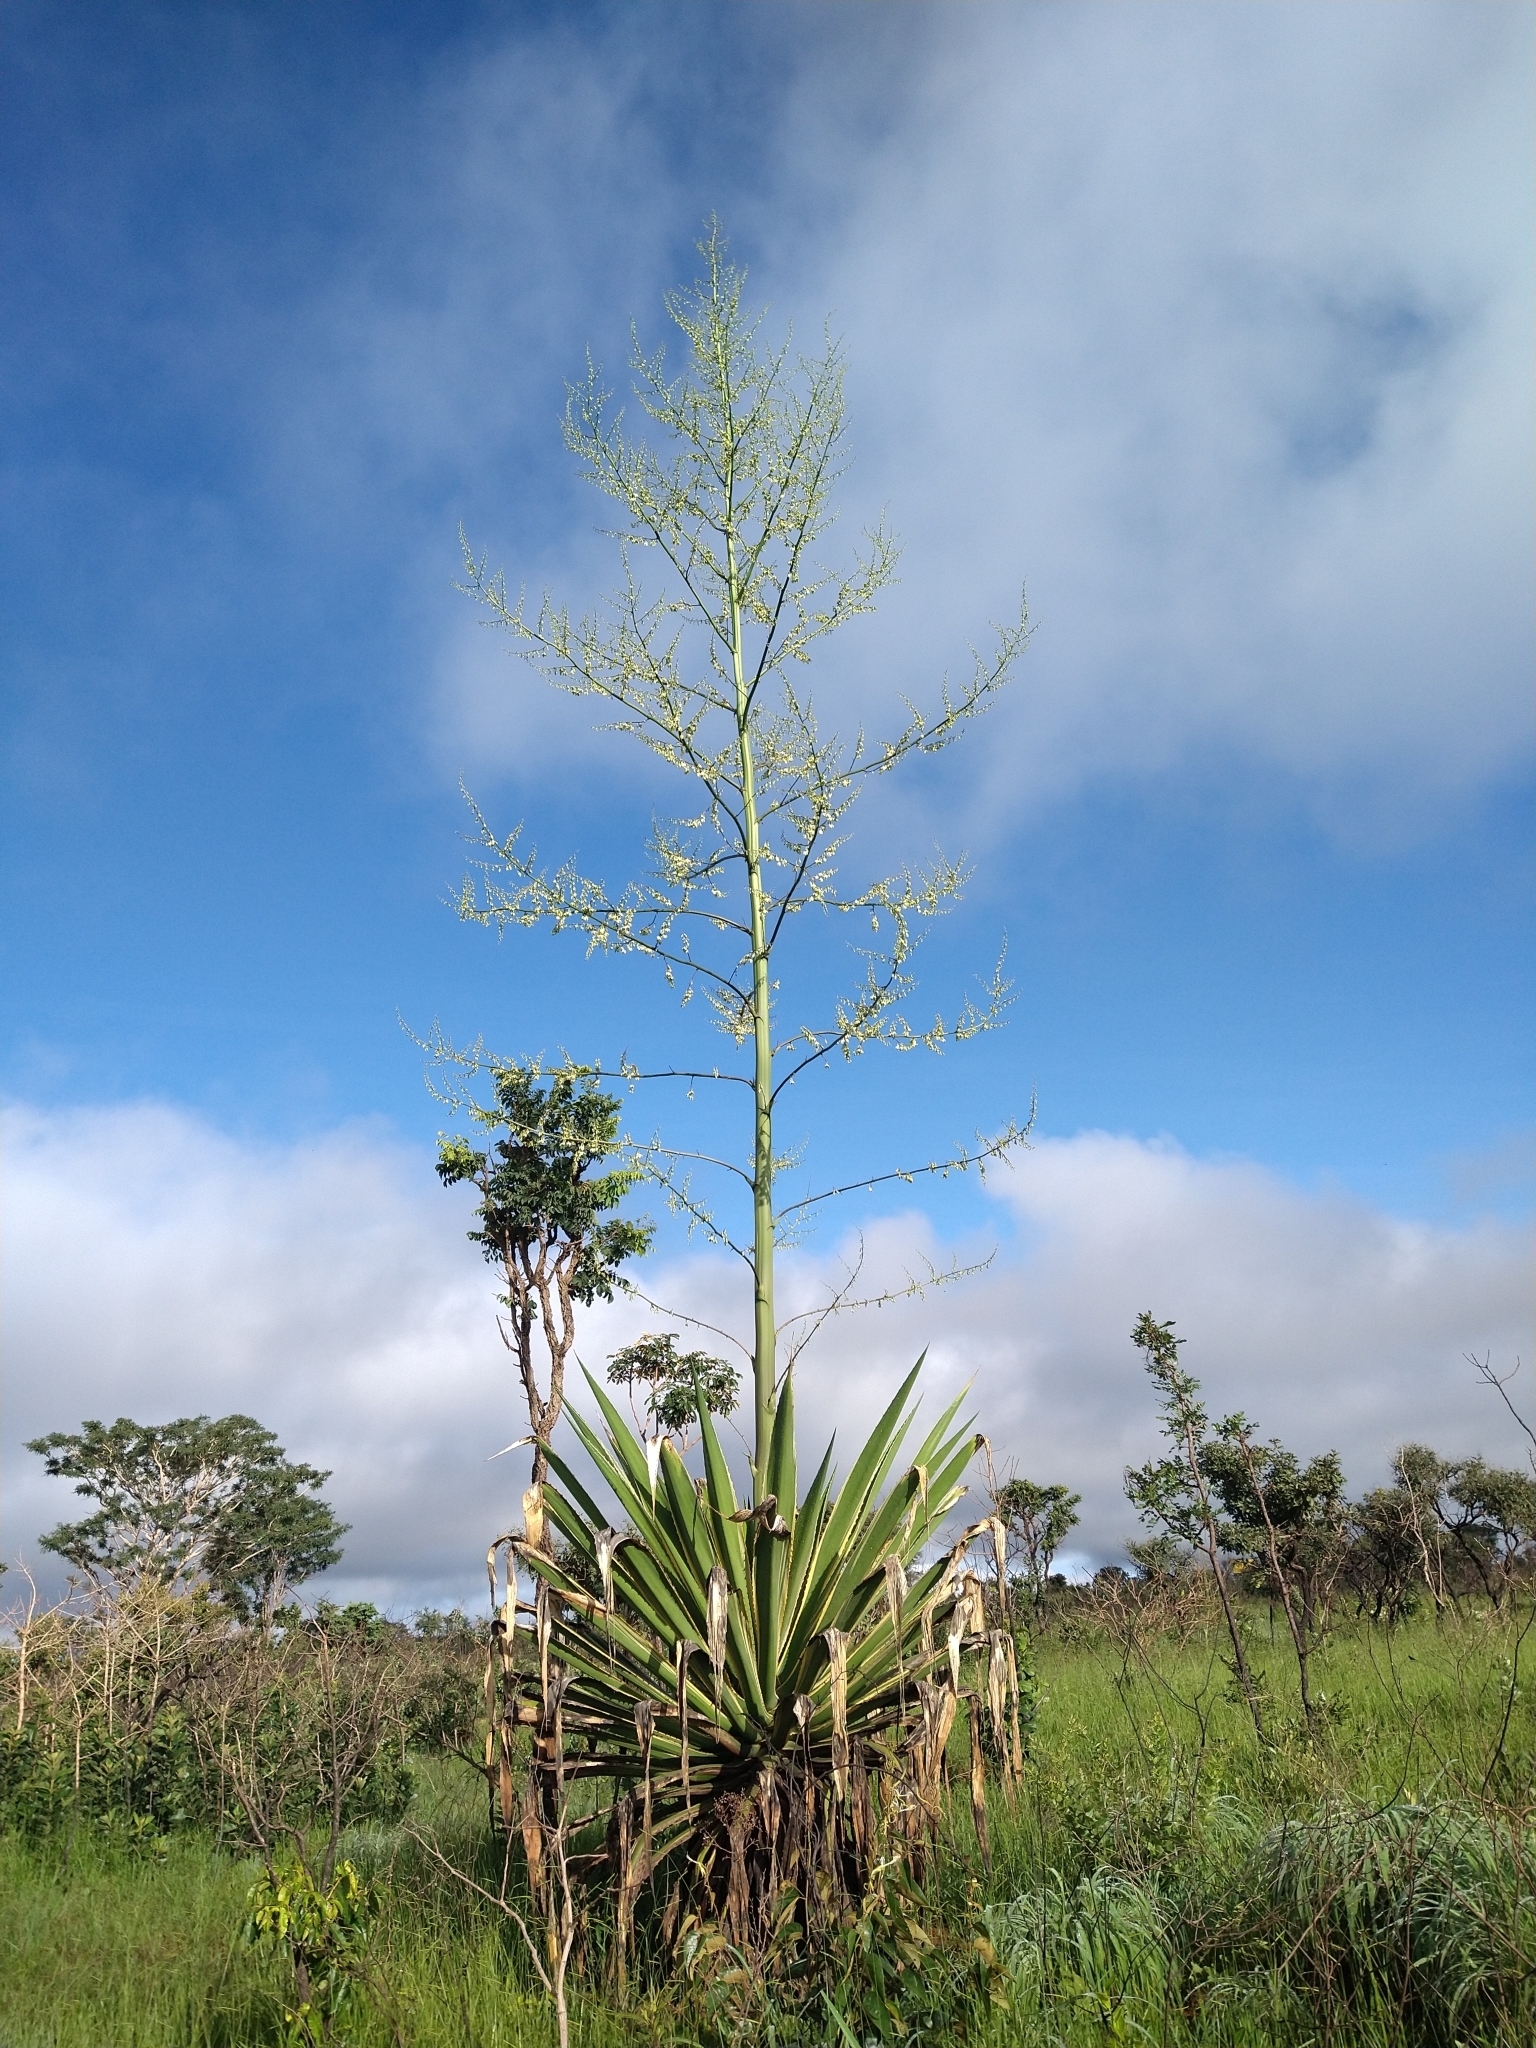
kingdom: Plantae
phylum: Tracheophyta
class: Liliopsida
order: Asparagales
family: Asparagaceae
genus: Furcraea
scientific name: Furcraea foetida
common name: Mauritius hemp
